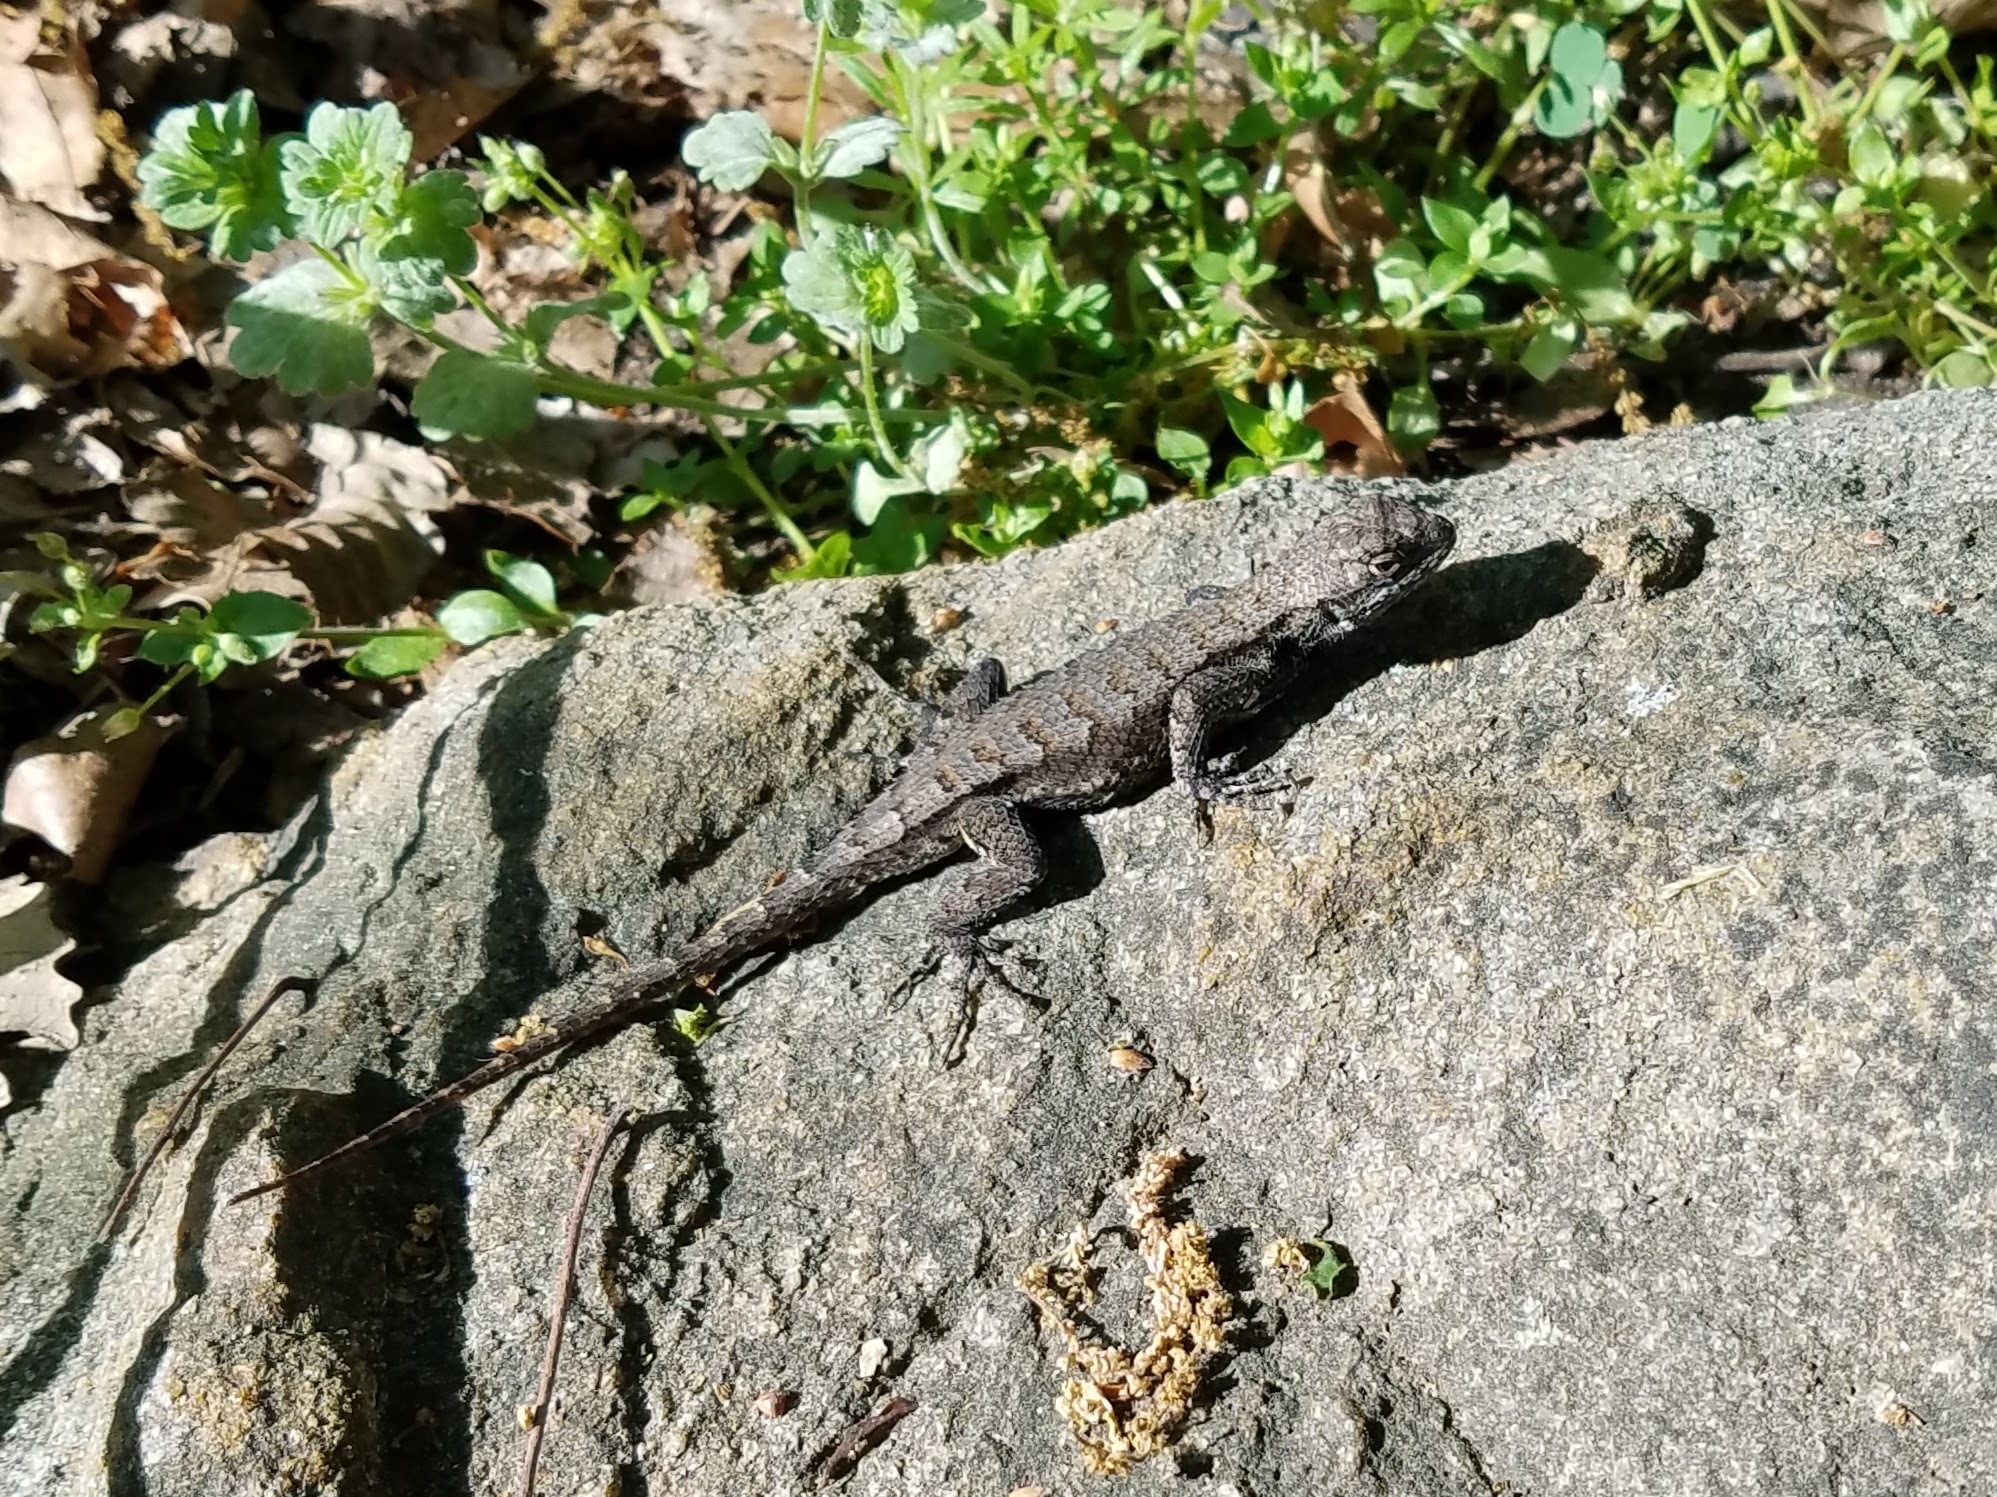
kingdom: Animalia
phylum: Chordata
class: Squamata
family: Phrynosomatidae
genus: Sceloporus
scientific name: Sceloporus undulatus
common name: Eastern fence lizard
